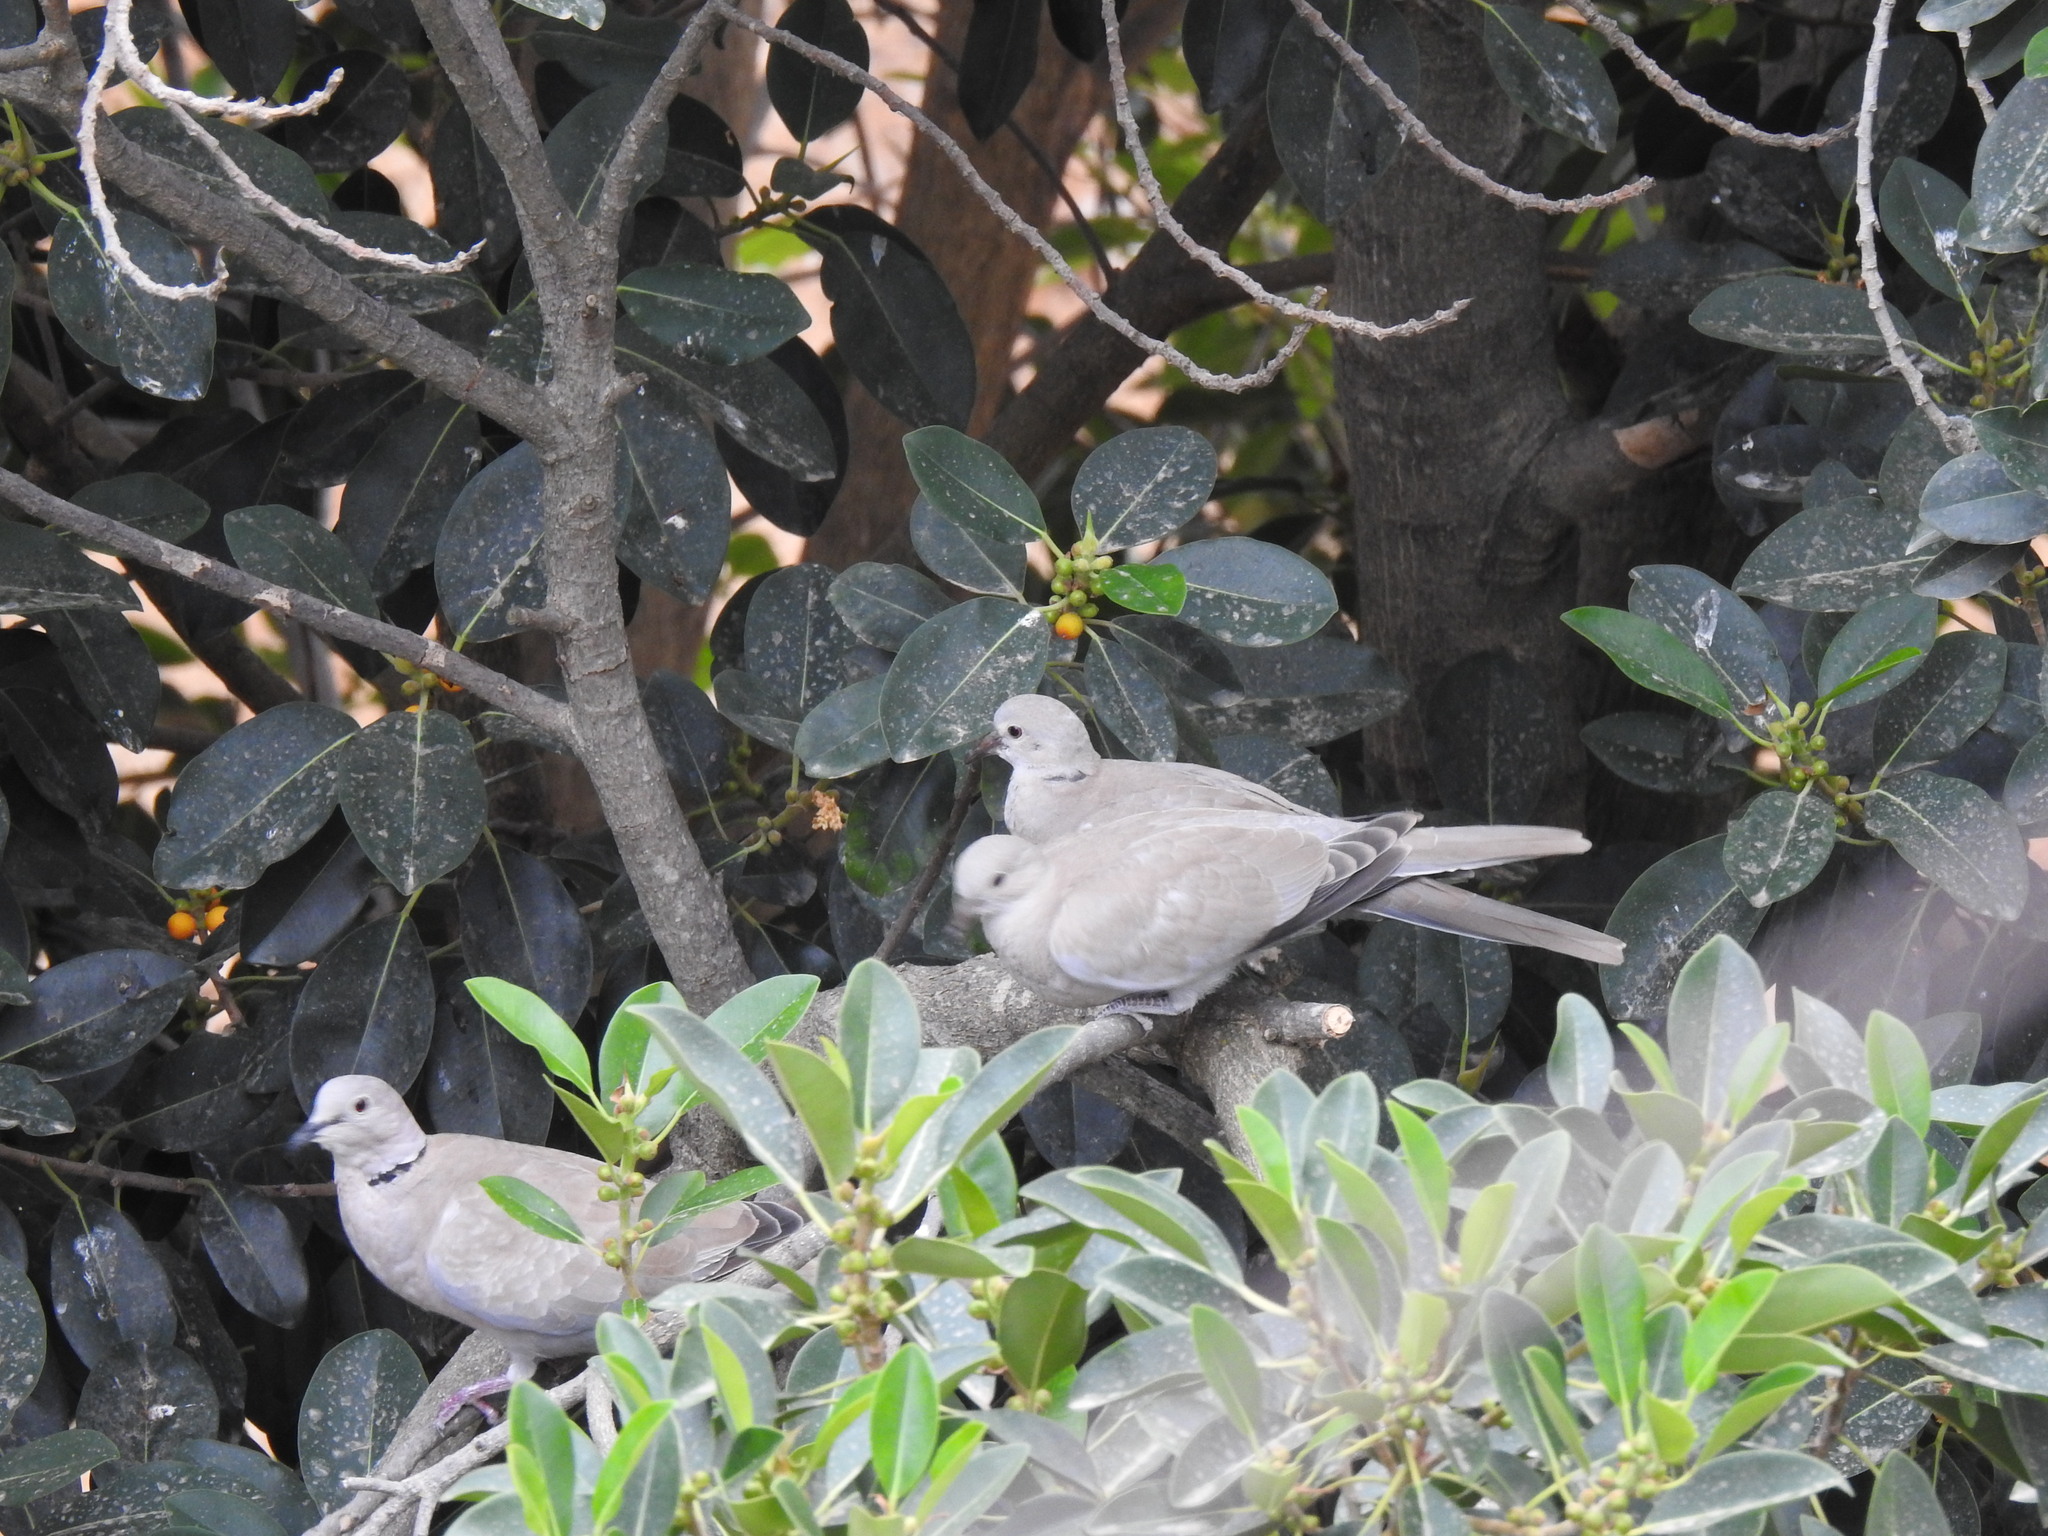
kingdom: Animalia
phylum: Chordata
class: Aves
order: Columbiformes
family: Columbidae
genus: Streptopelia
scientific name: Streptopelia decaocto
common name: Eurasian collared dove
